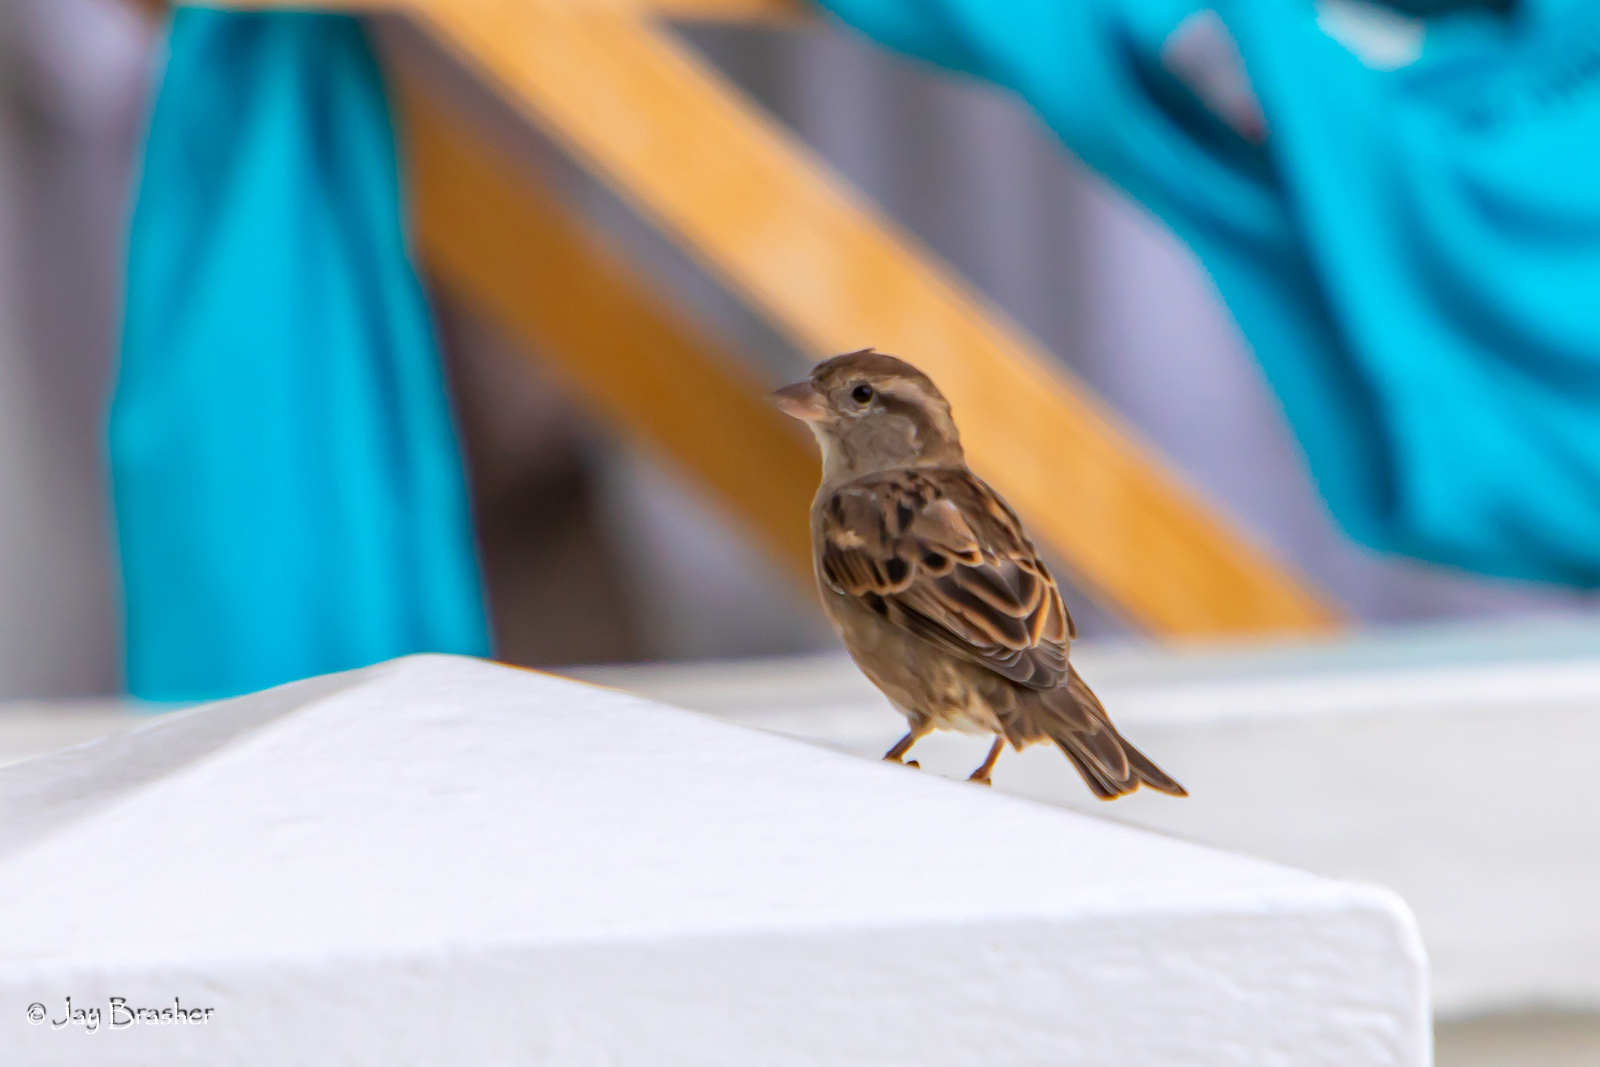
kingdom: Animalia
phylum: Chordata
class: Aves
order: Passeriformes
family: Passeridae
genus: Passer
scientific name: Passer domesticus
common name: House sparrow
